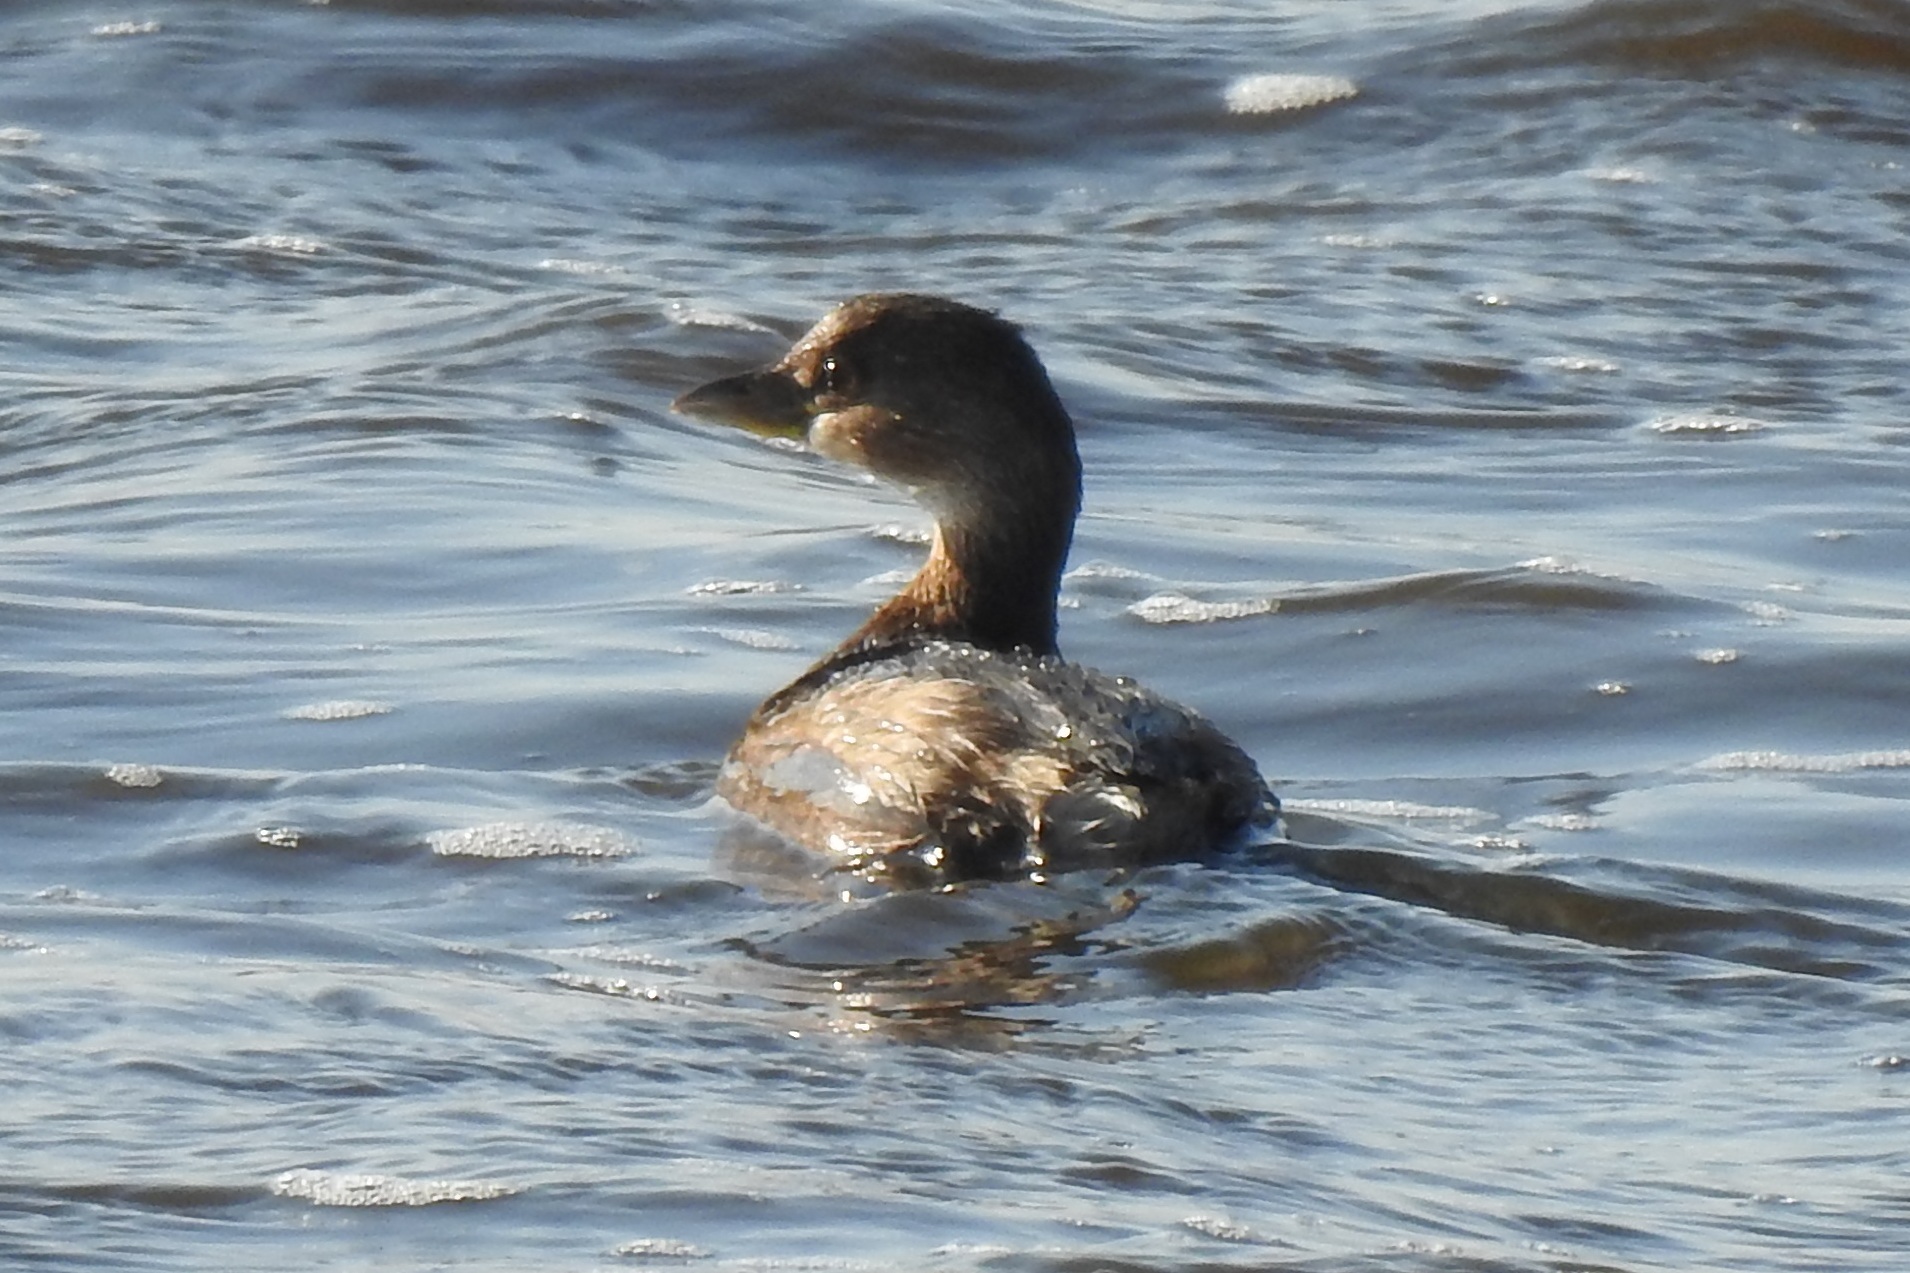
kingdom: Animalia
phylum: Chordata
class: Aves
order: Podicipediformes
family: Podicipedidae
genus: Podilymbus
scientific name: Podilymbus podiceps
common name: Pied-billed grebe
